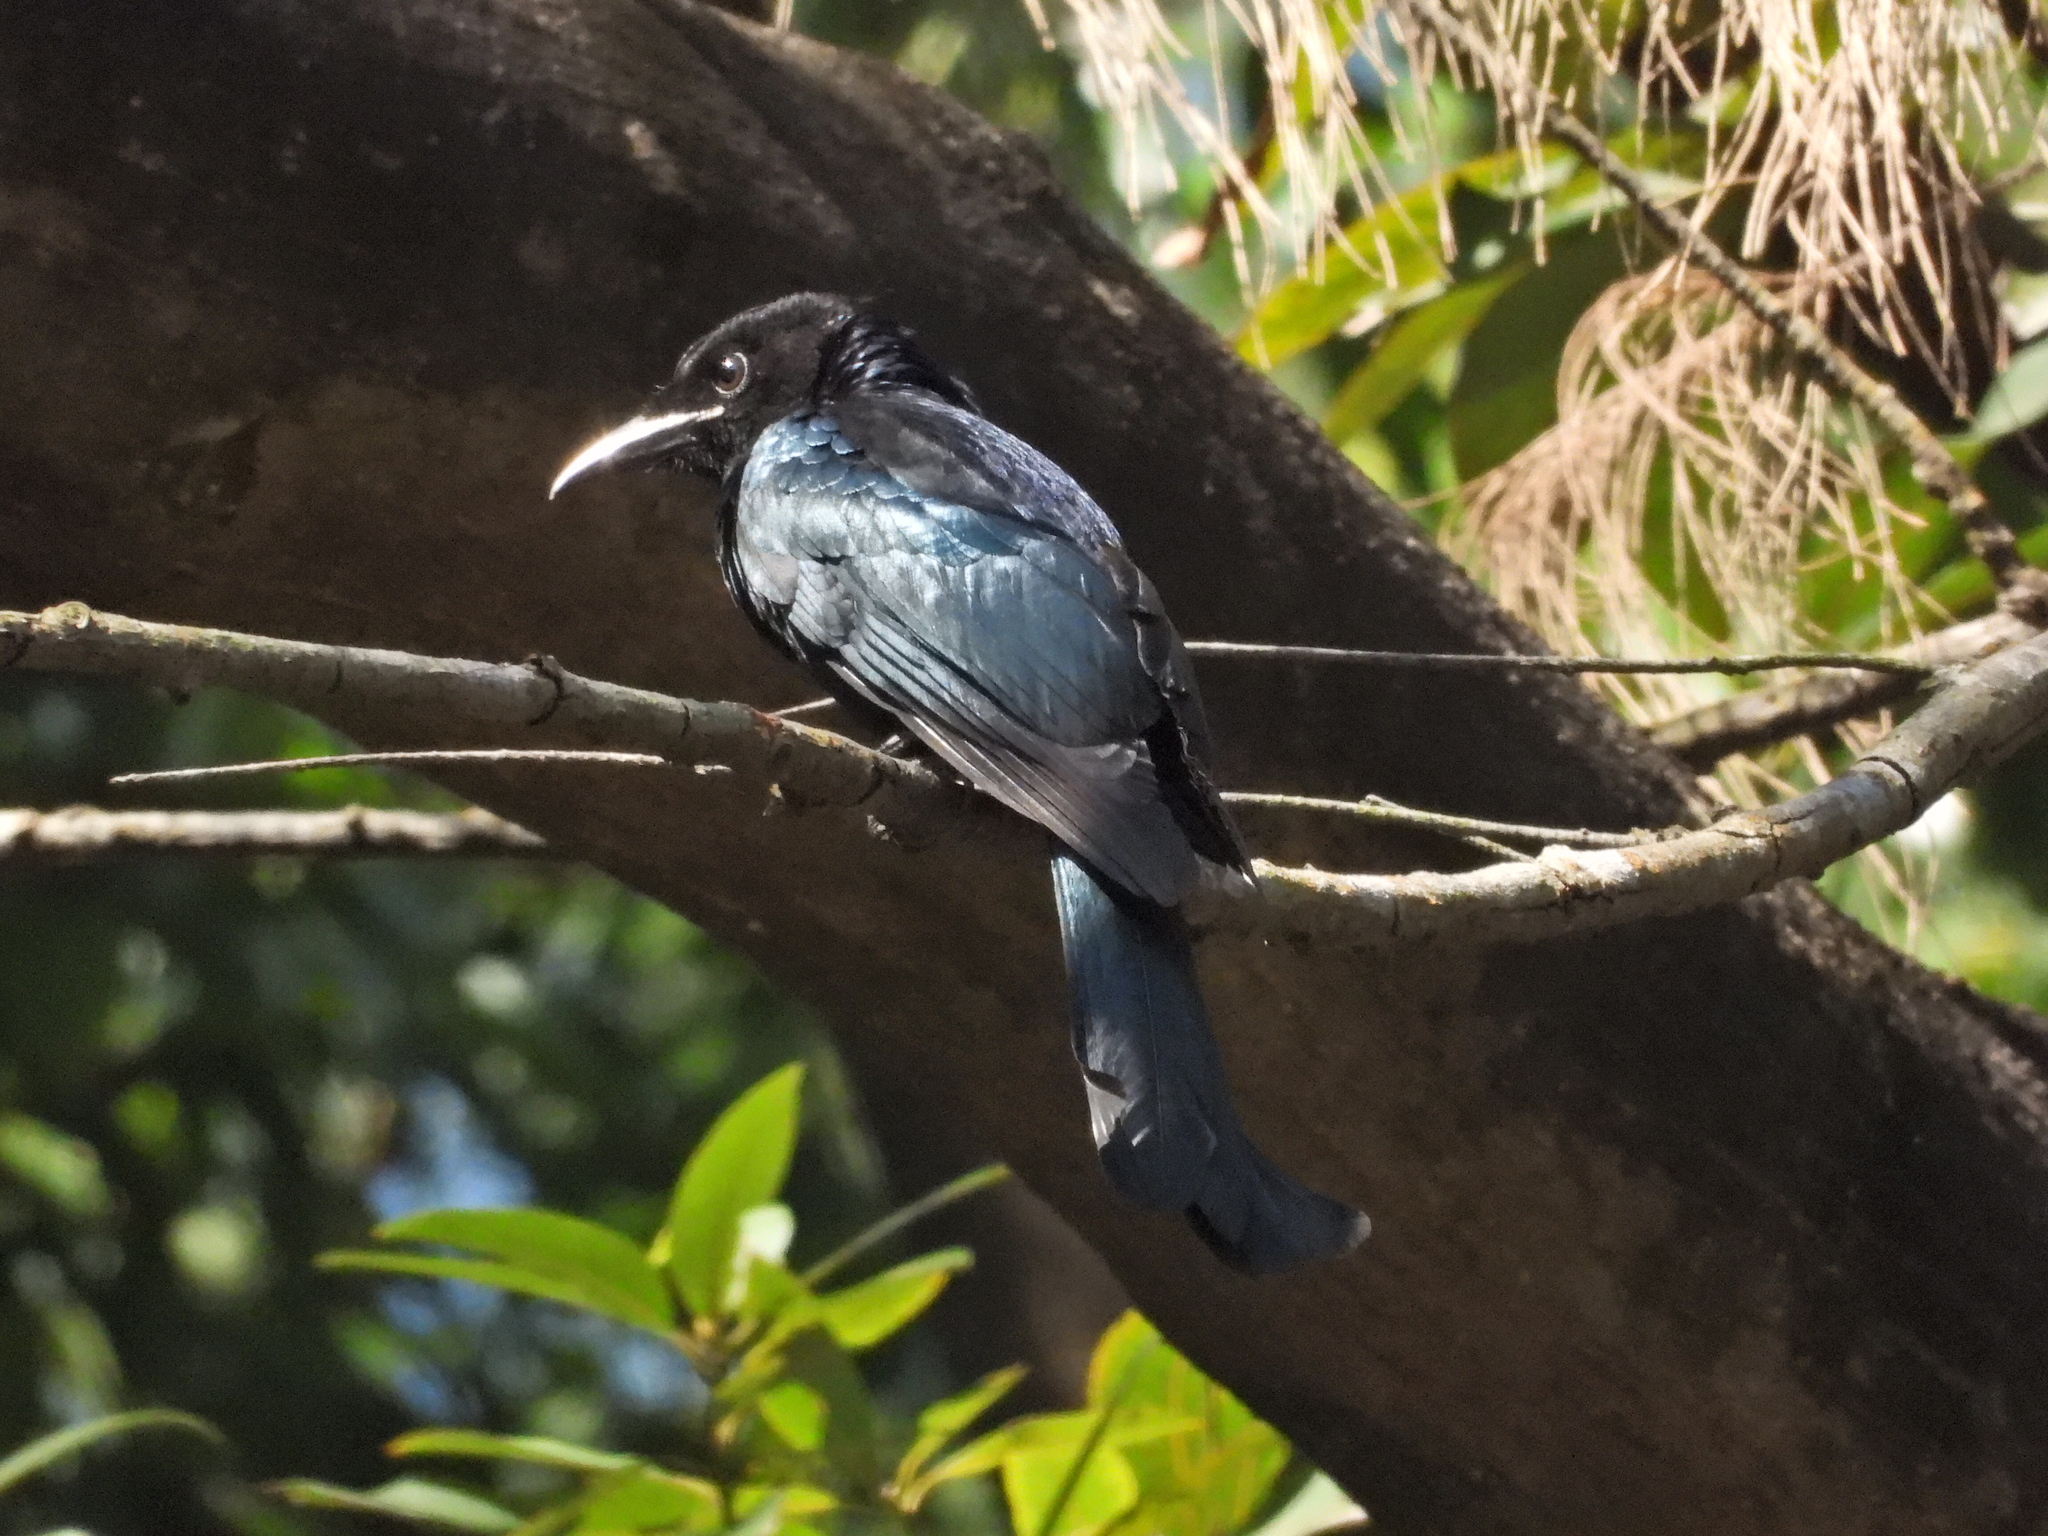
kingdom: Animalia
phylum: Chordata
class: Aves
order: Passeriformes
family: Dicruridae
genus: Dicrurus
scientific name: Dicrurus hottentottus
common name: Hair-crested drongo
